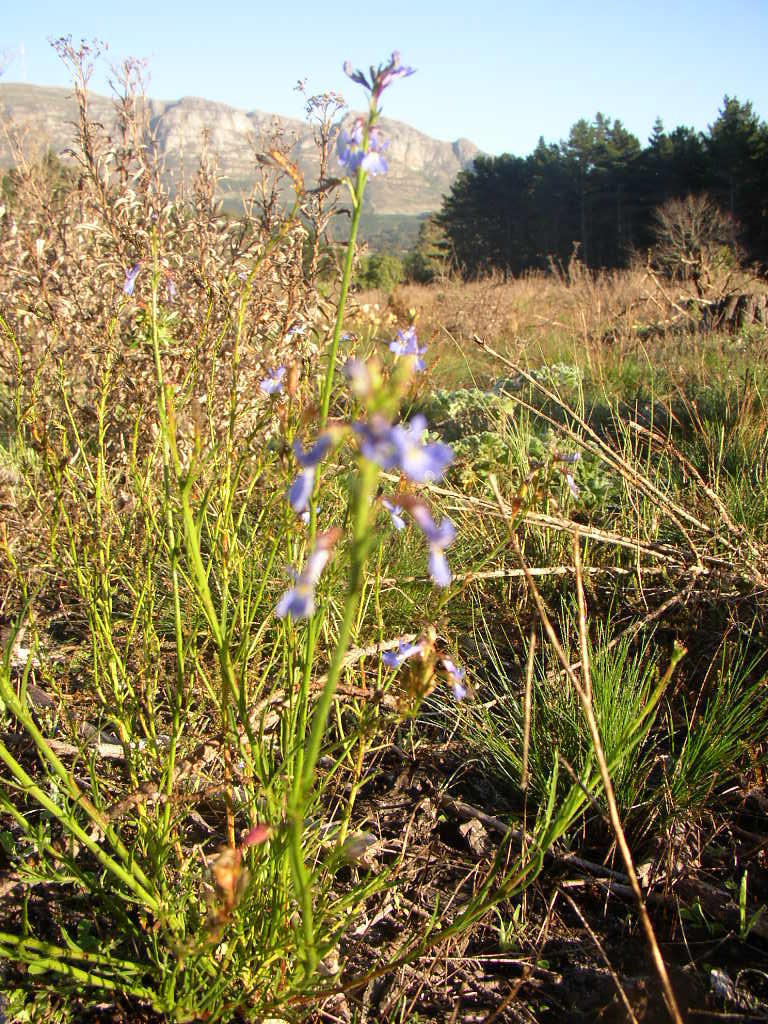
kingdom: Plantae
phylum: Tracheophyta
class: Magnoliopsida
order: Asterales
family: Campanulaceae
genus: Lobelia
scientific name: Lobelia comosa
